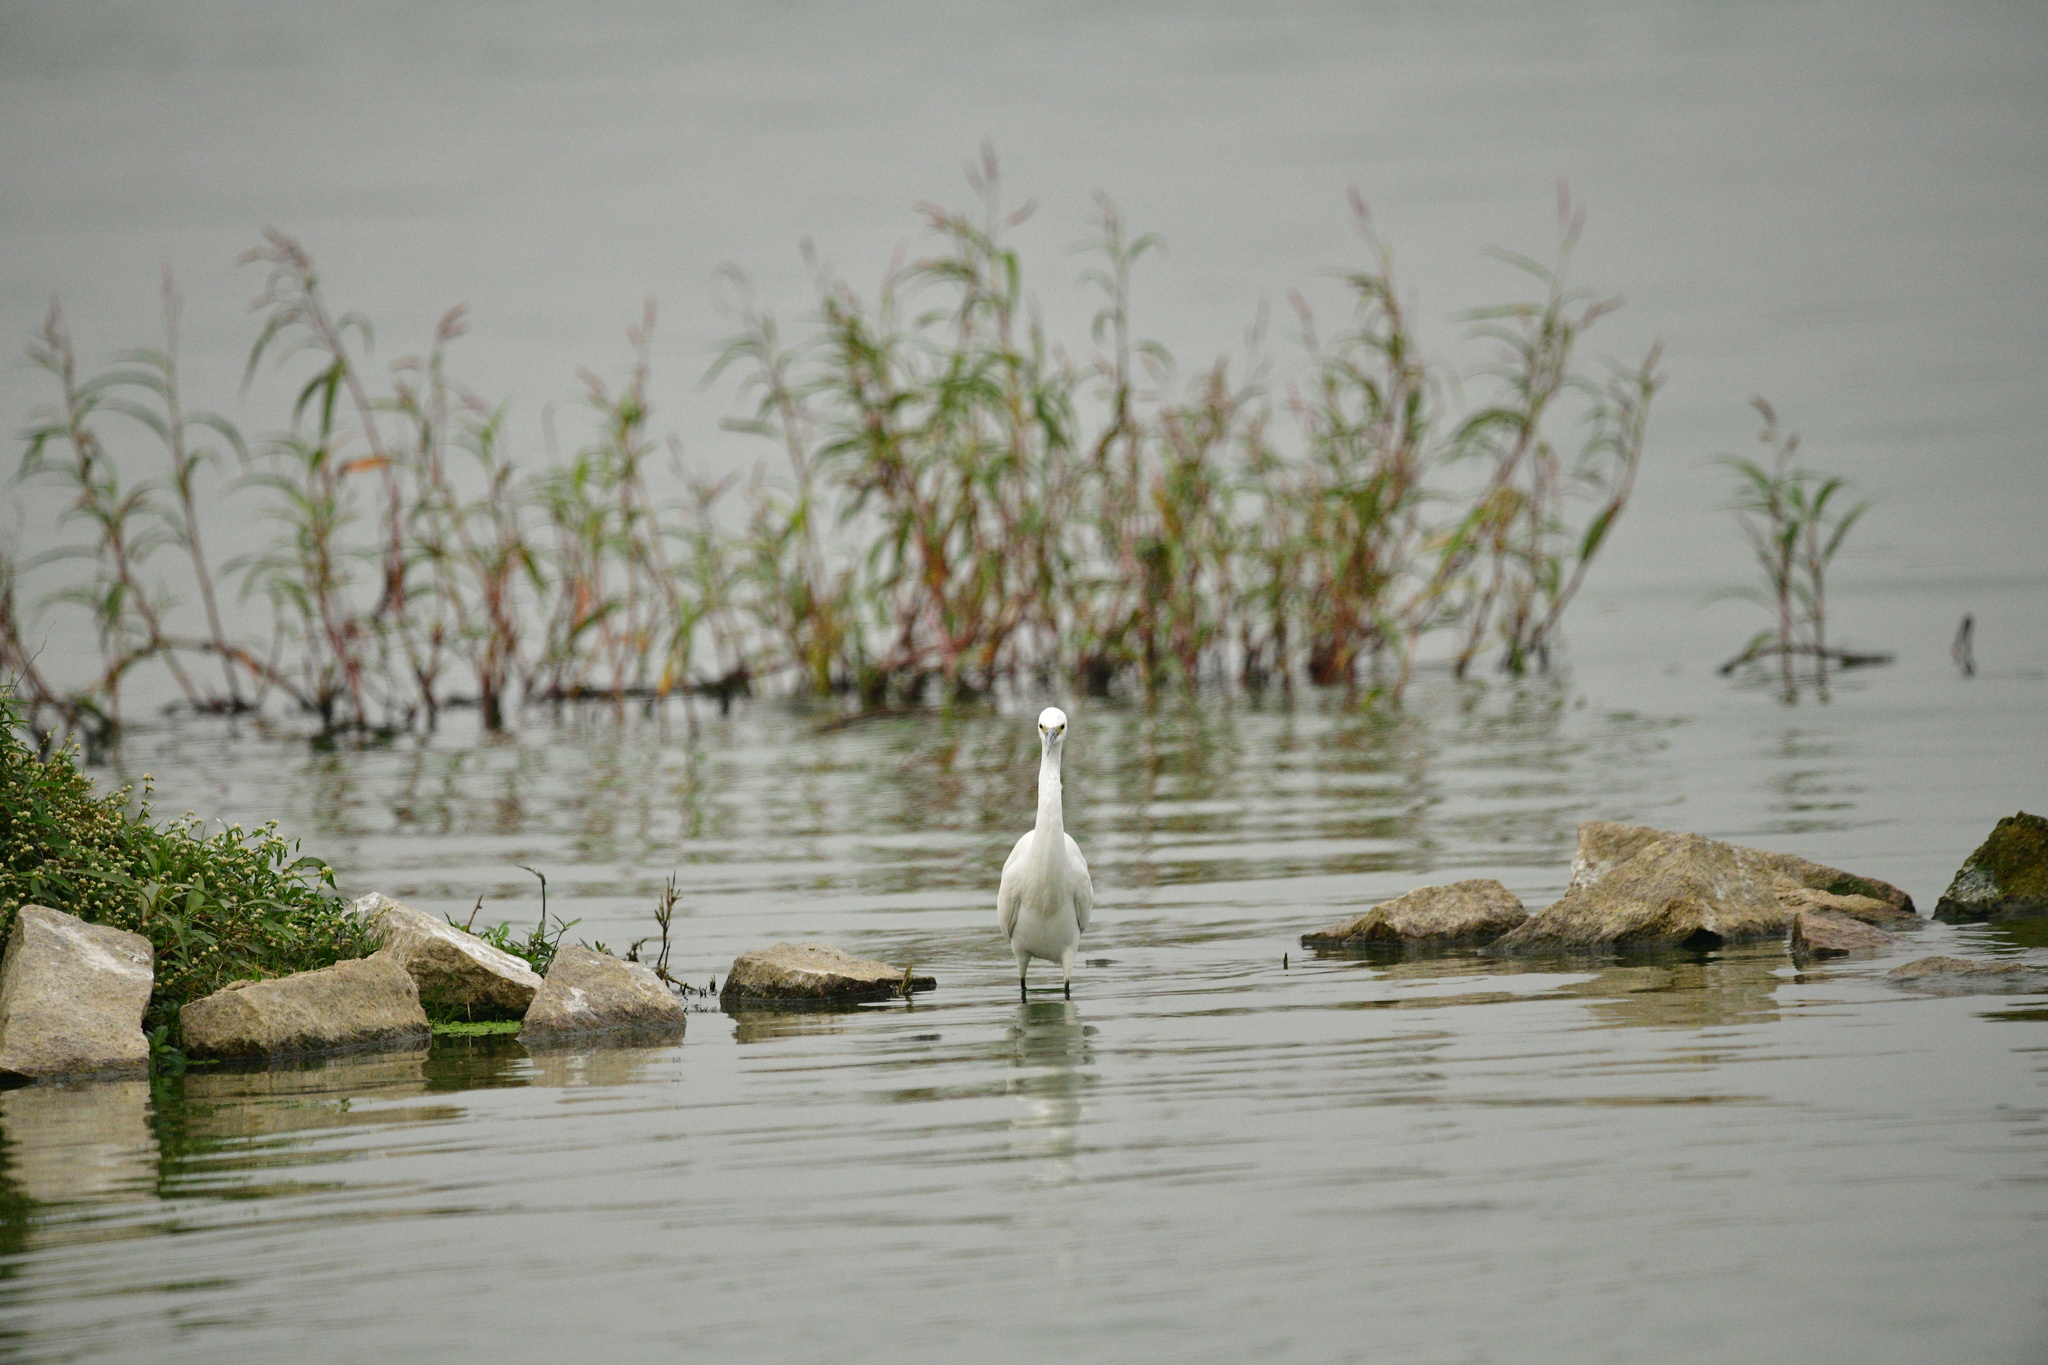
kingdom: Animalia
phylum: Chordata
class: Aves
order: Pelecaniformes
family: Ardeidae
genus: Egretta
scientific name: Egretta garzetta
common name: Little egret
